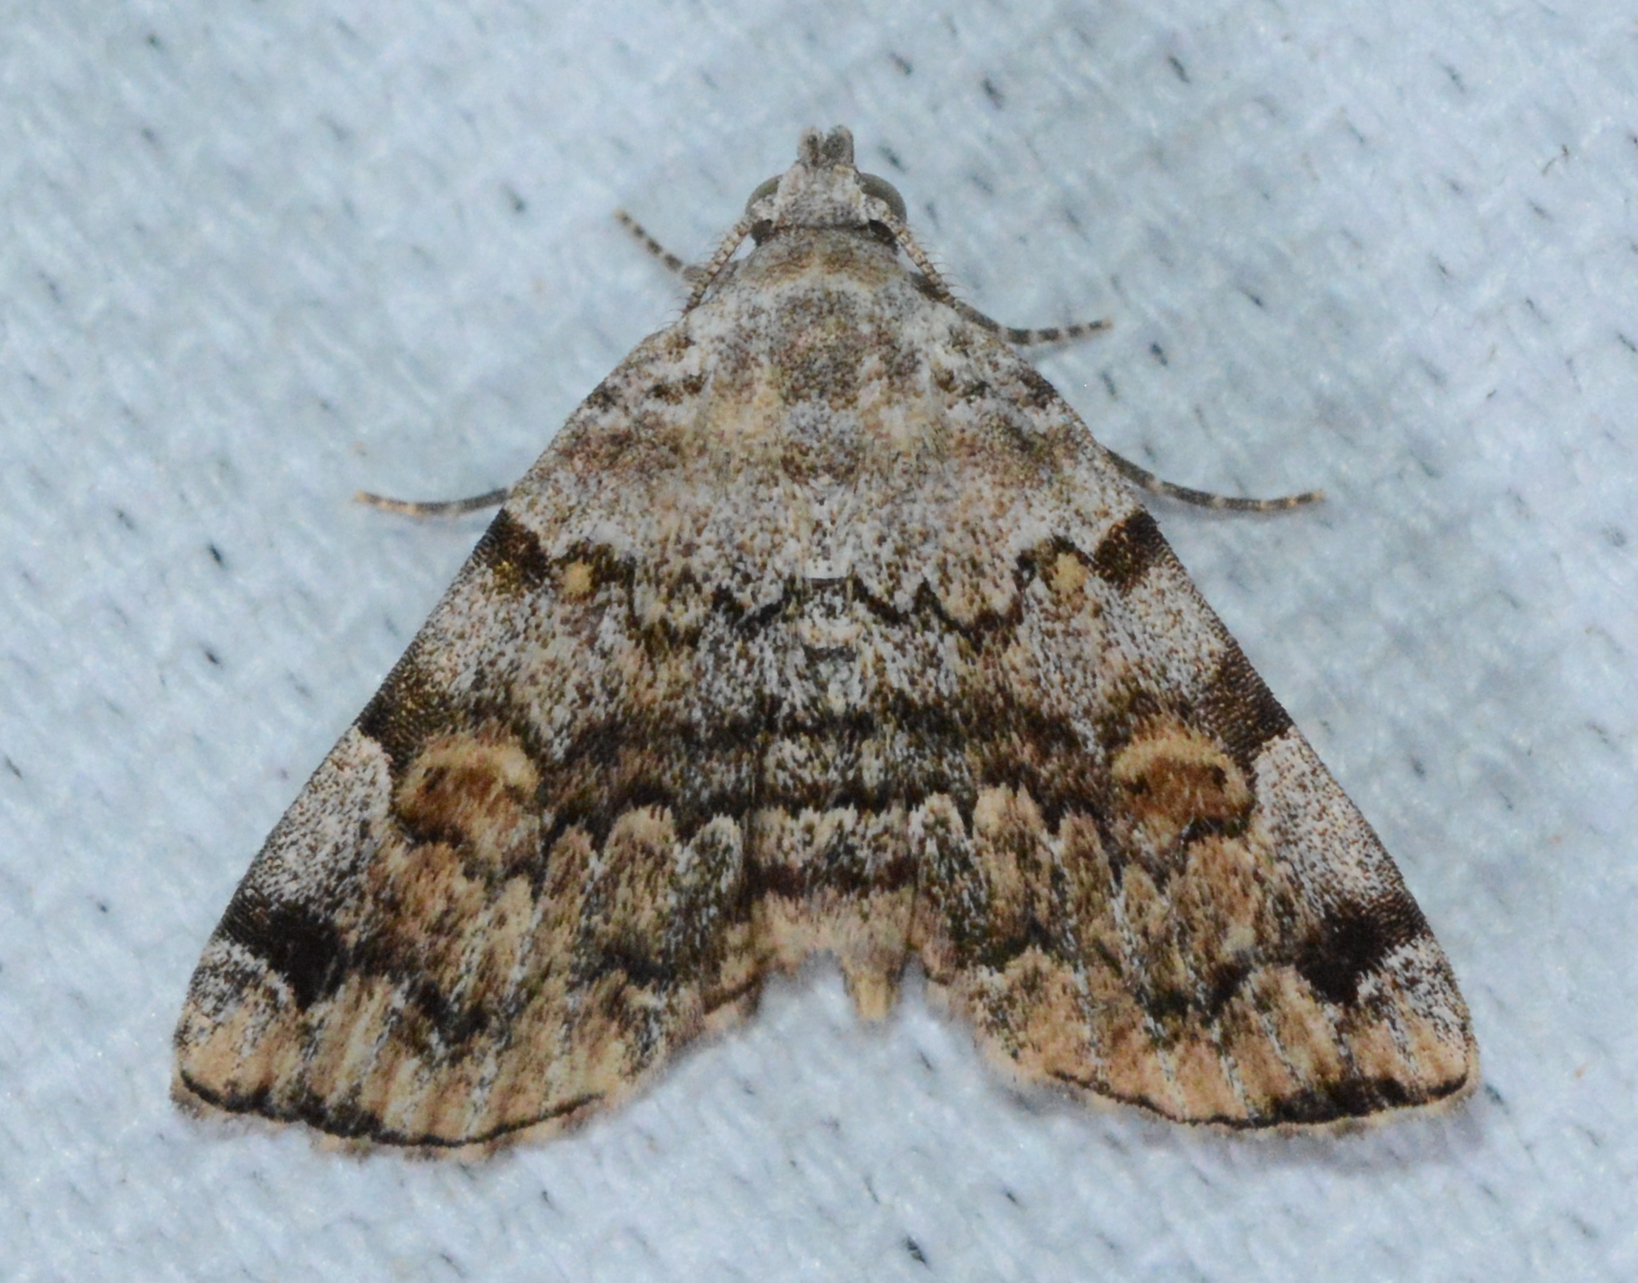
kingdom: Animalia
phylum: Arthropoda
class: Insecta
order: Lepidoptera
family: Erebidae
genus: Idia
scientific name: Idia americalis
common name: American idia moth
